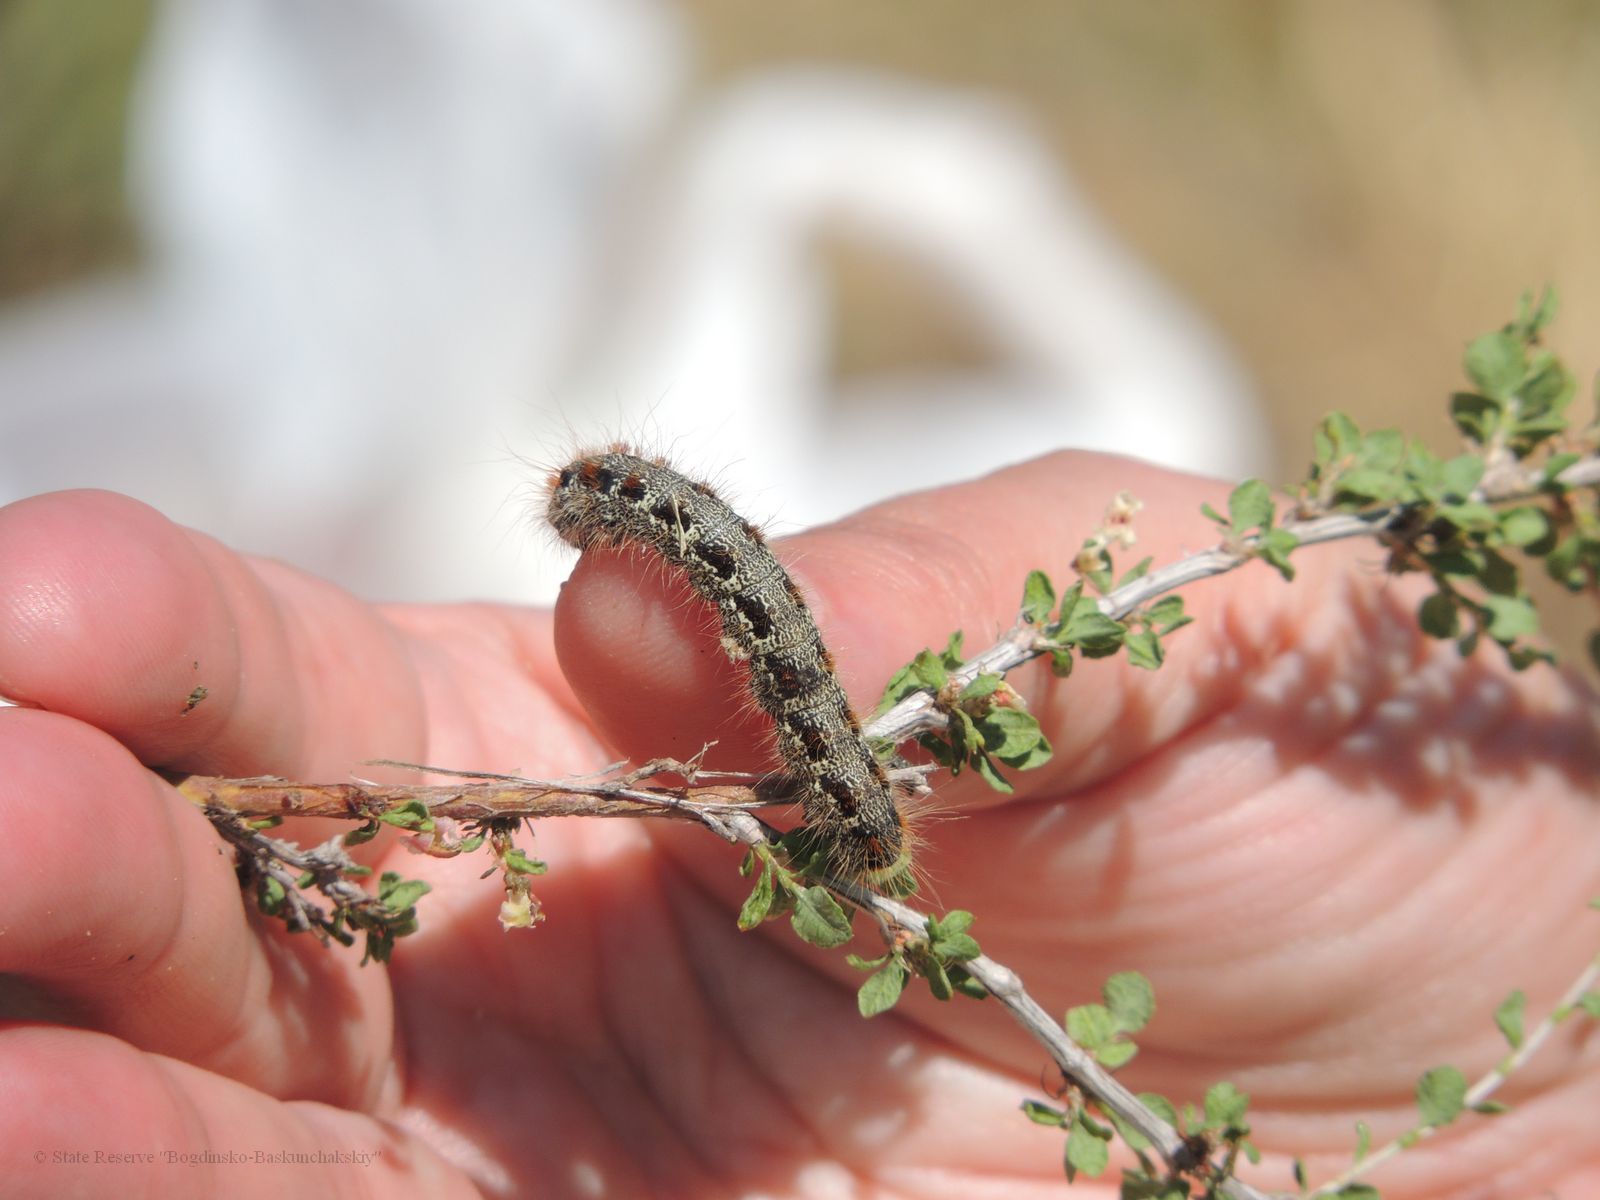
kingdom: Animalia
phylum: Arthropoda
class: Insecta
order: Lepidoptera
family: Lasiocampidae
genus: Eriogaster
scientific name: Eriogaster neogena
